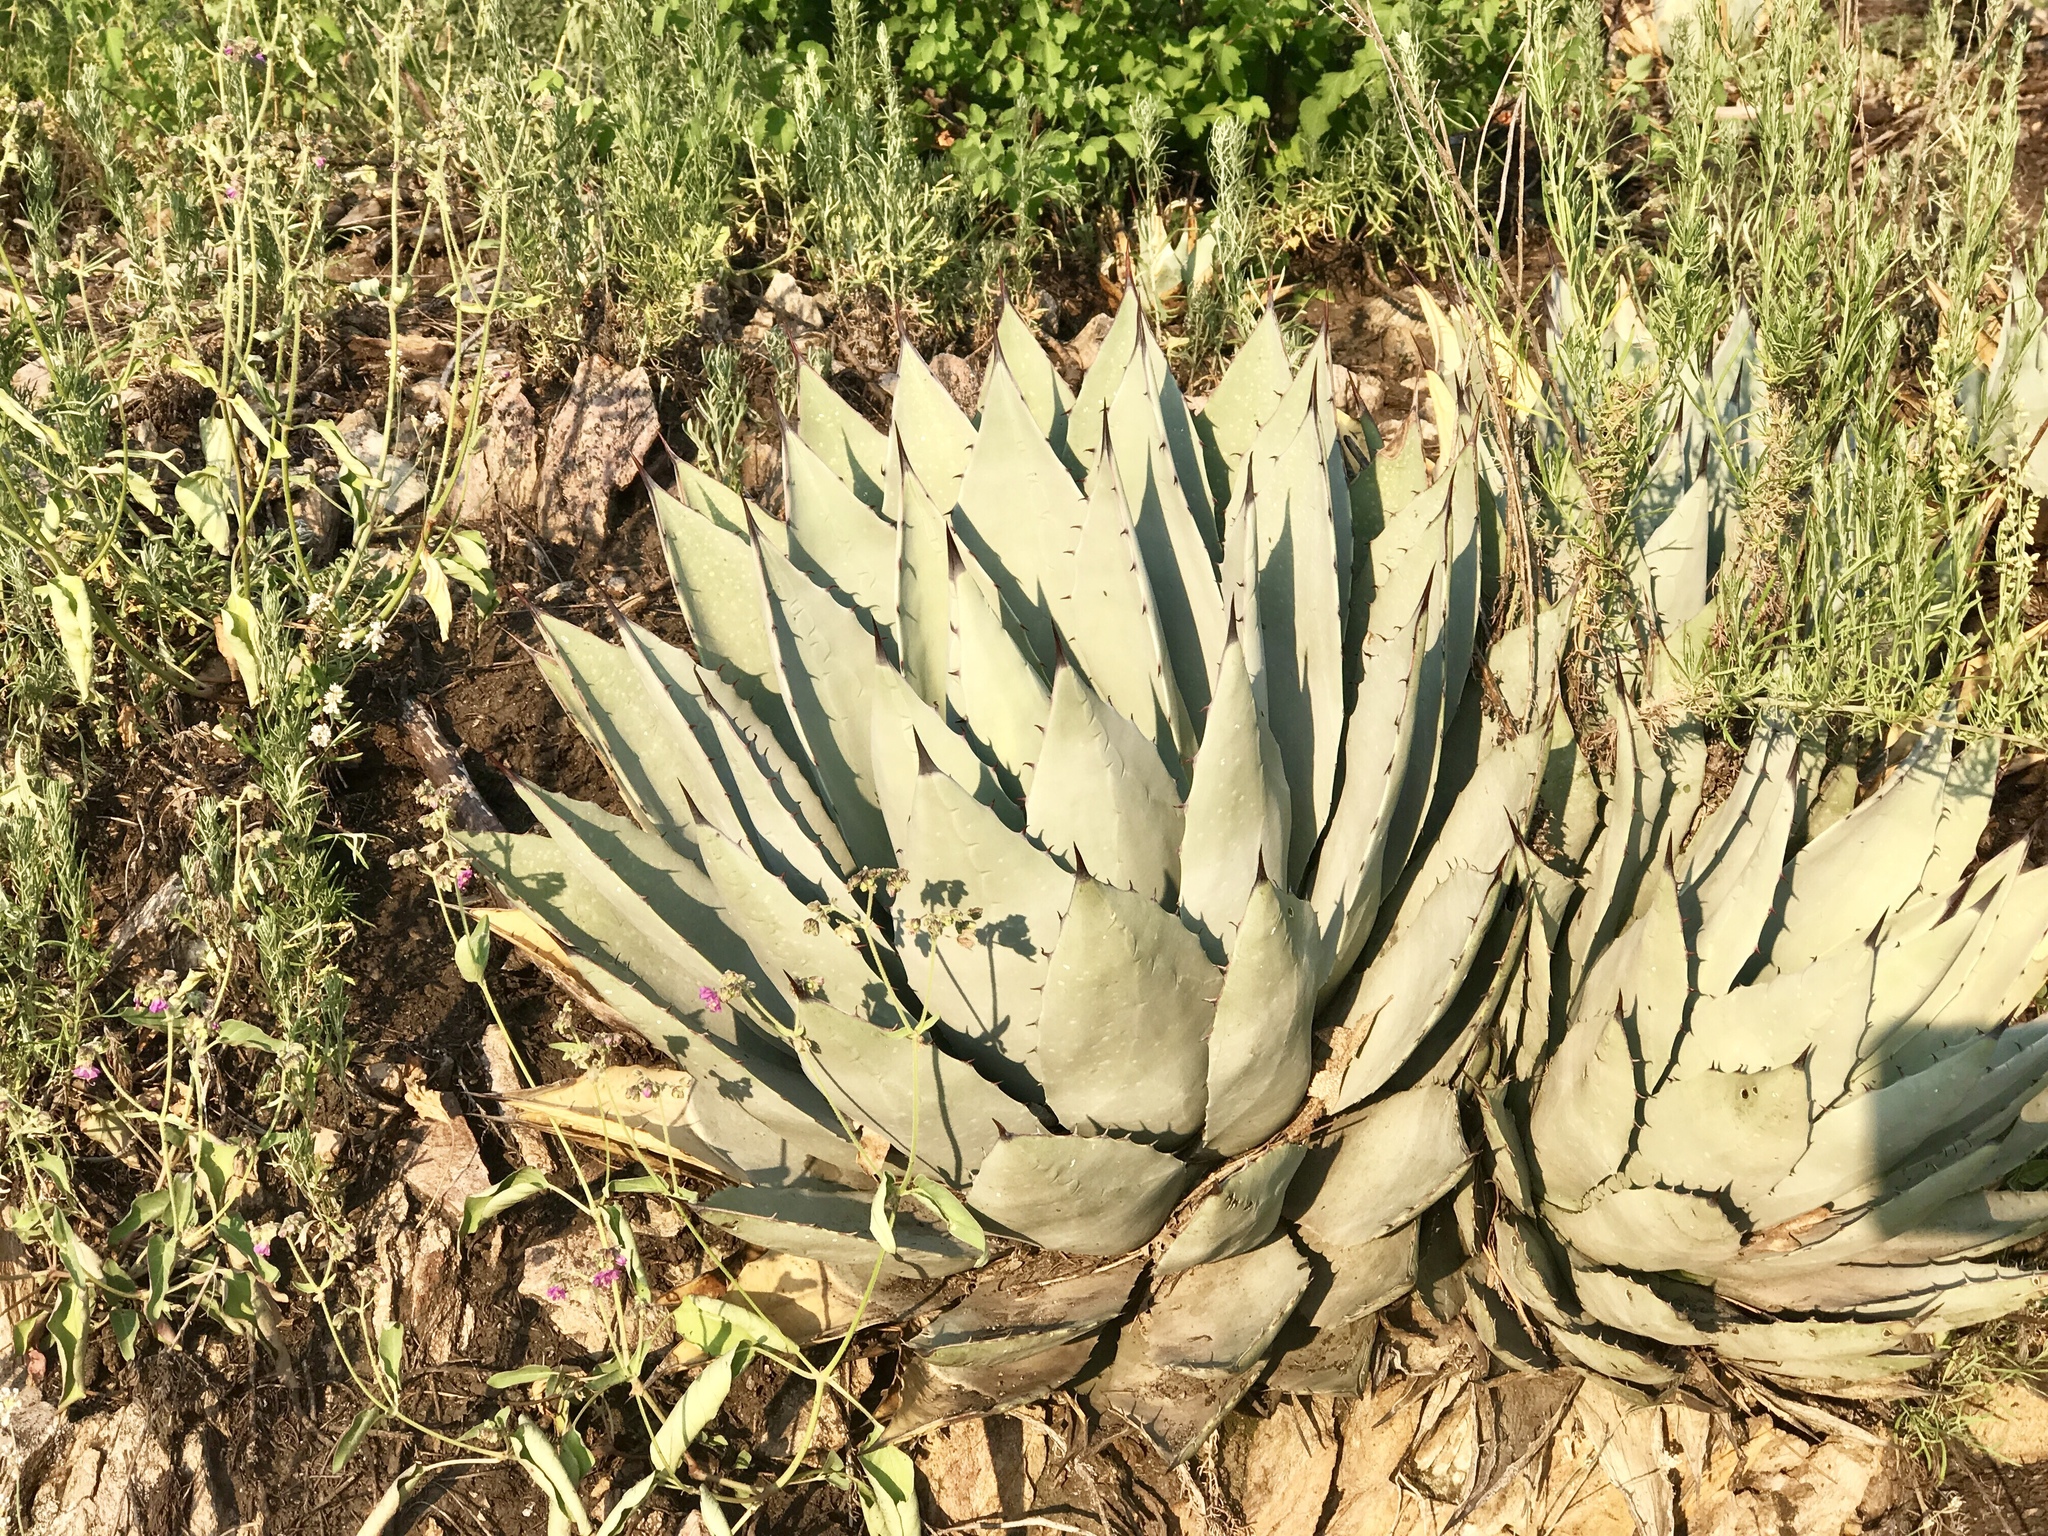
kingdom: Plantae
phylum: Tracheophyta
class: Liliopsida
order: Asparagales
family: Asparagaceae
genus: Agave
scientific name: Agave parryi
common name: Parry's agave
